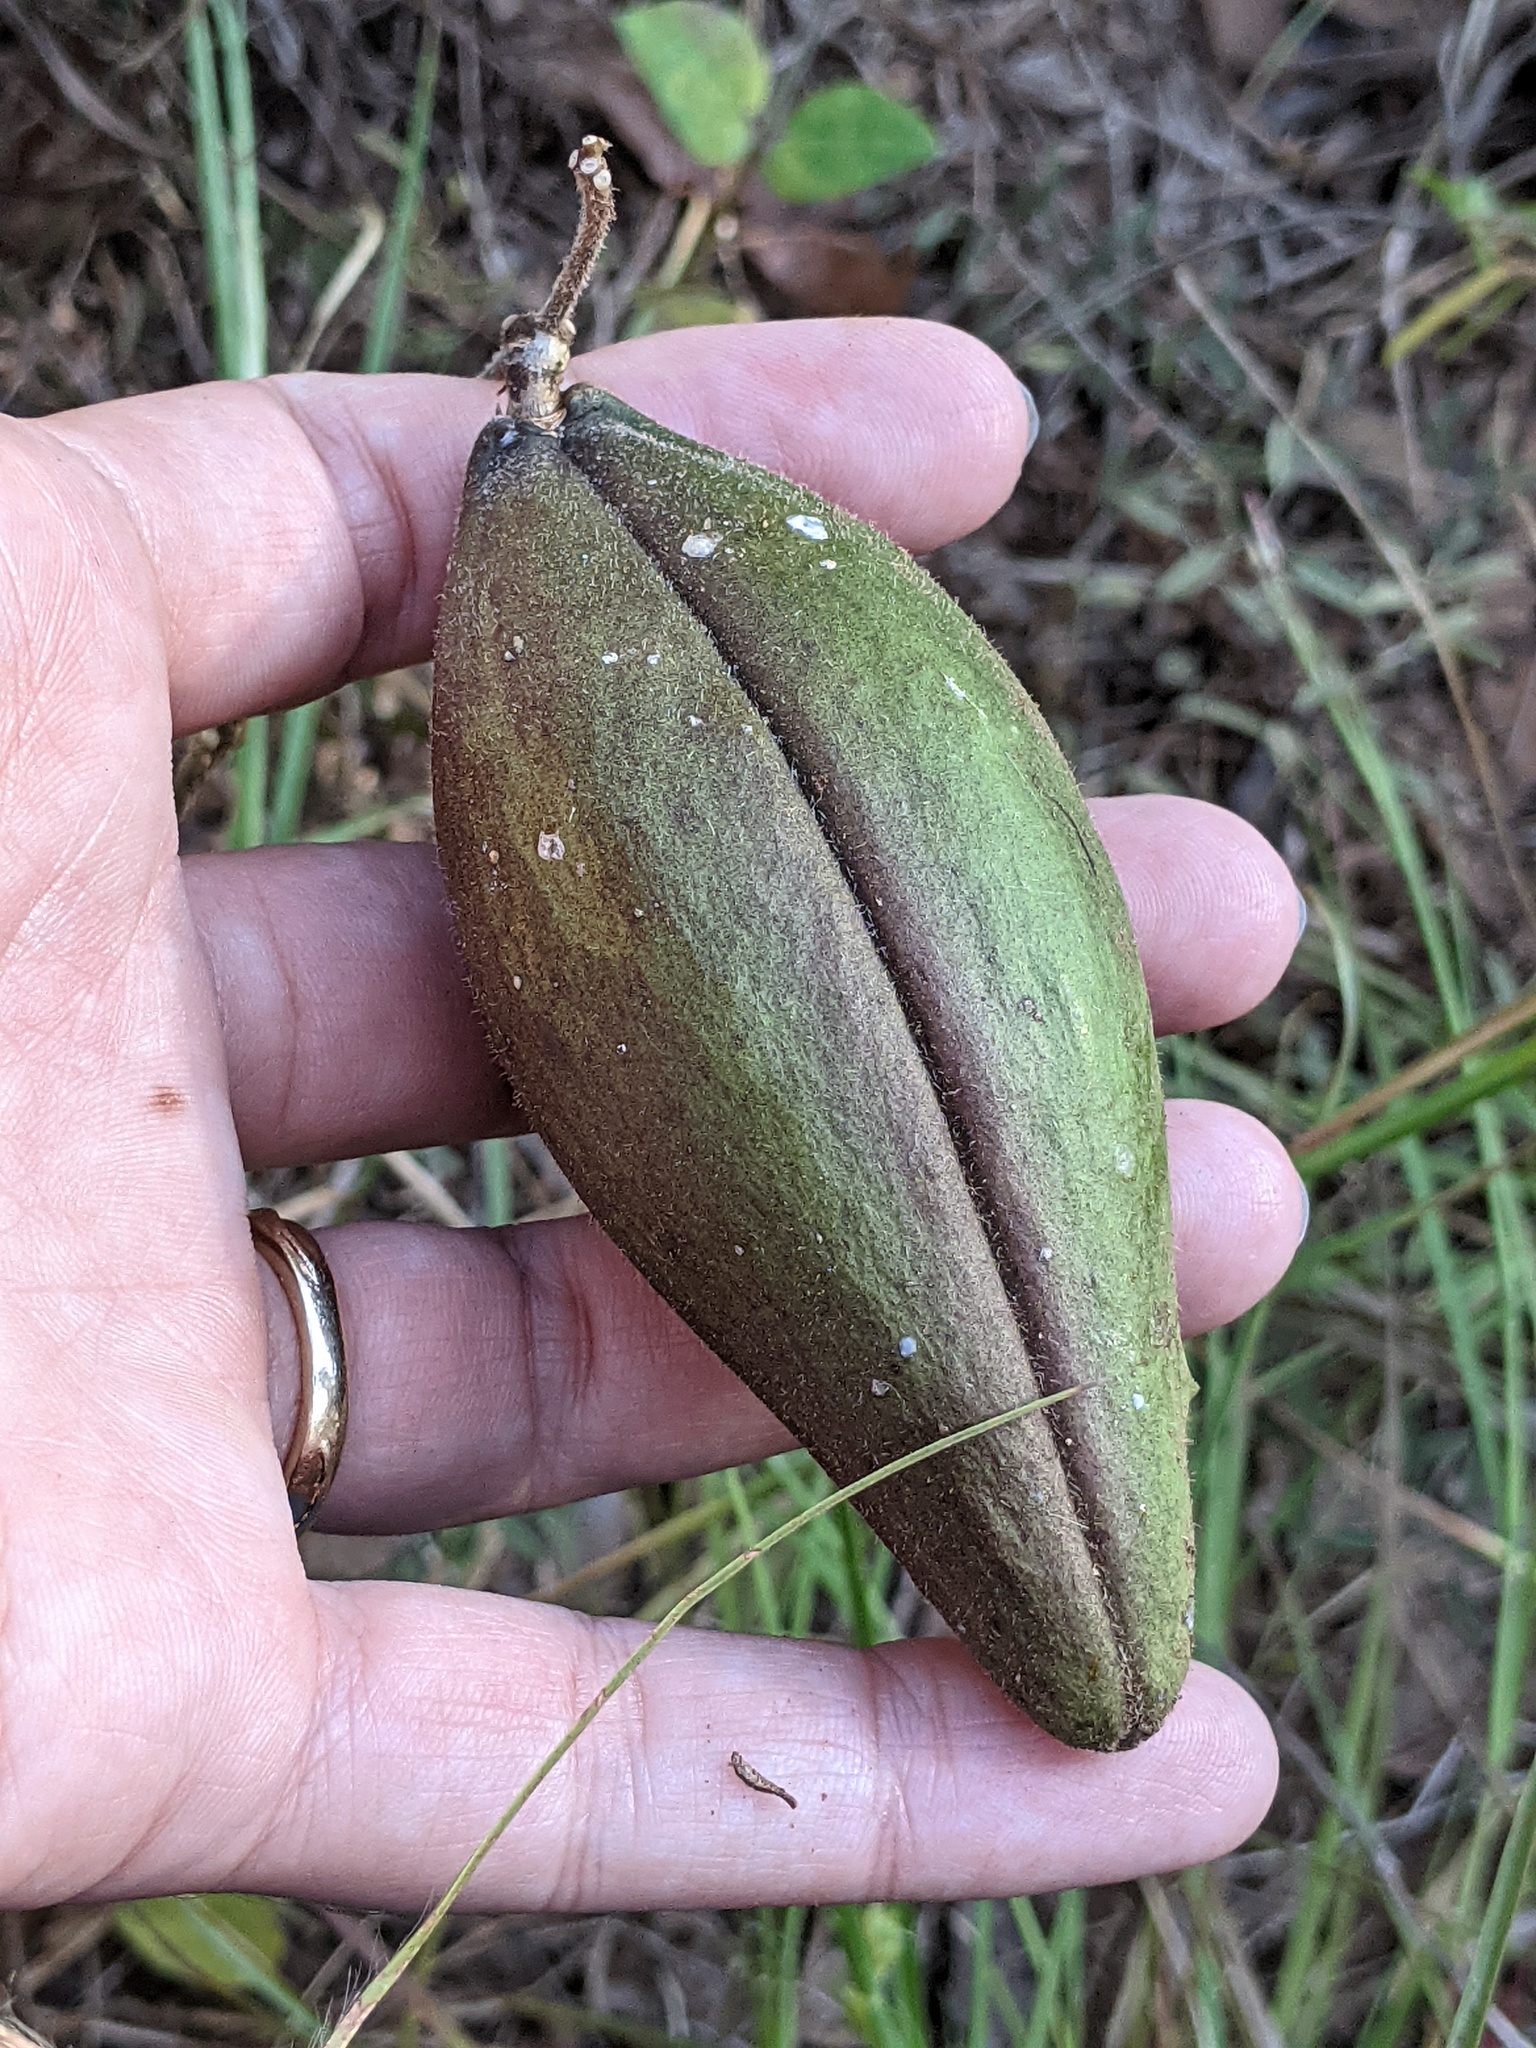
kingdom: Plantae
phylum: Tracheophyta
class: Magnoliopsida
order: Gentianales
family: Apocynaceae
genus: Matelea
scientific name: Matelea cynanchoides
